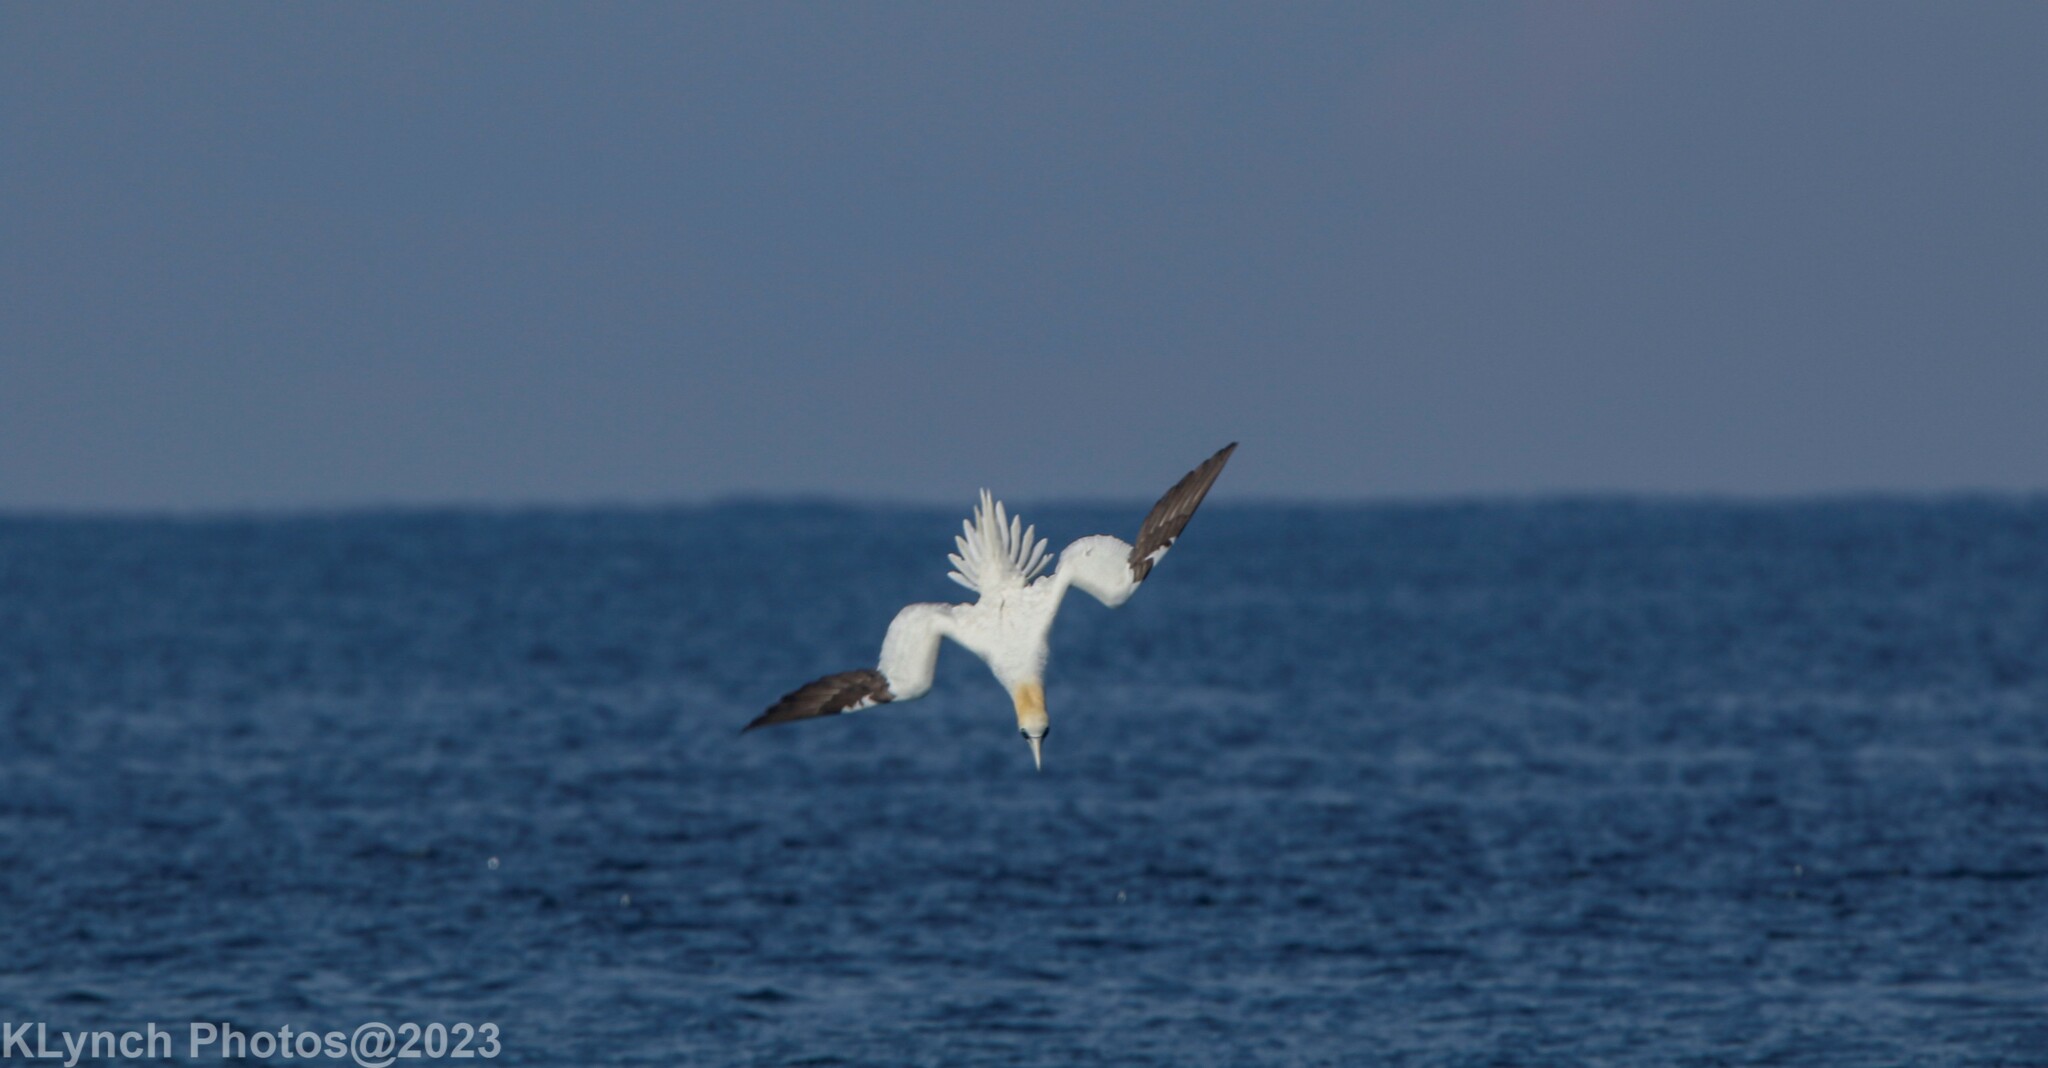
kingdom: Animalia
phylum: Chordata
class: Aves
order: Suliformes
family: Sulidae
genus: Morus
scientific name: Morus bassanus
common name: Northern gannet
